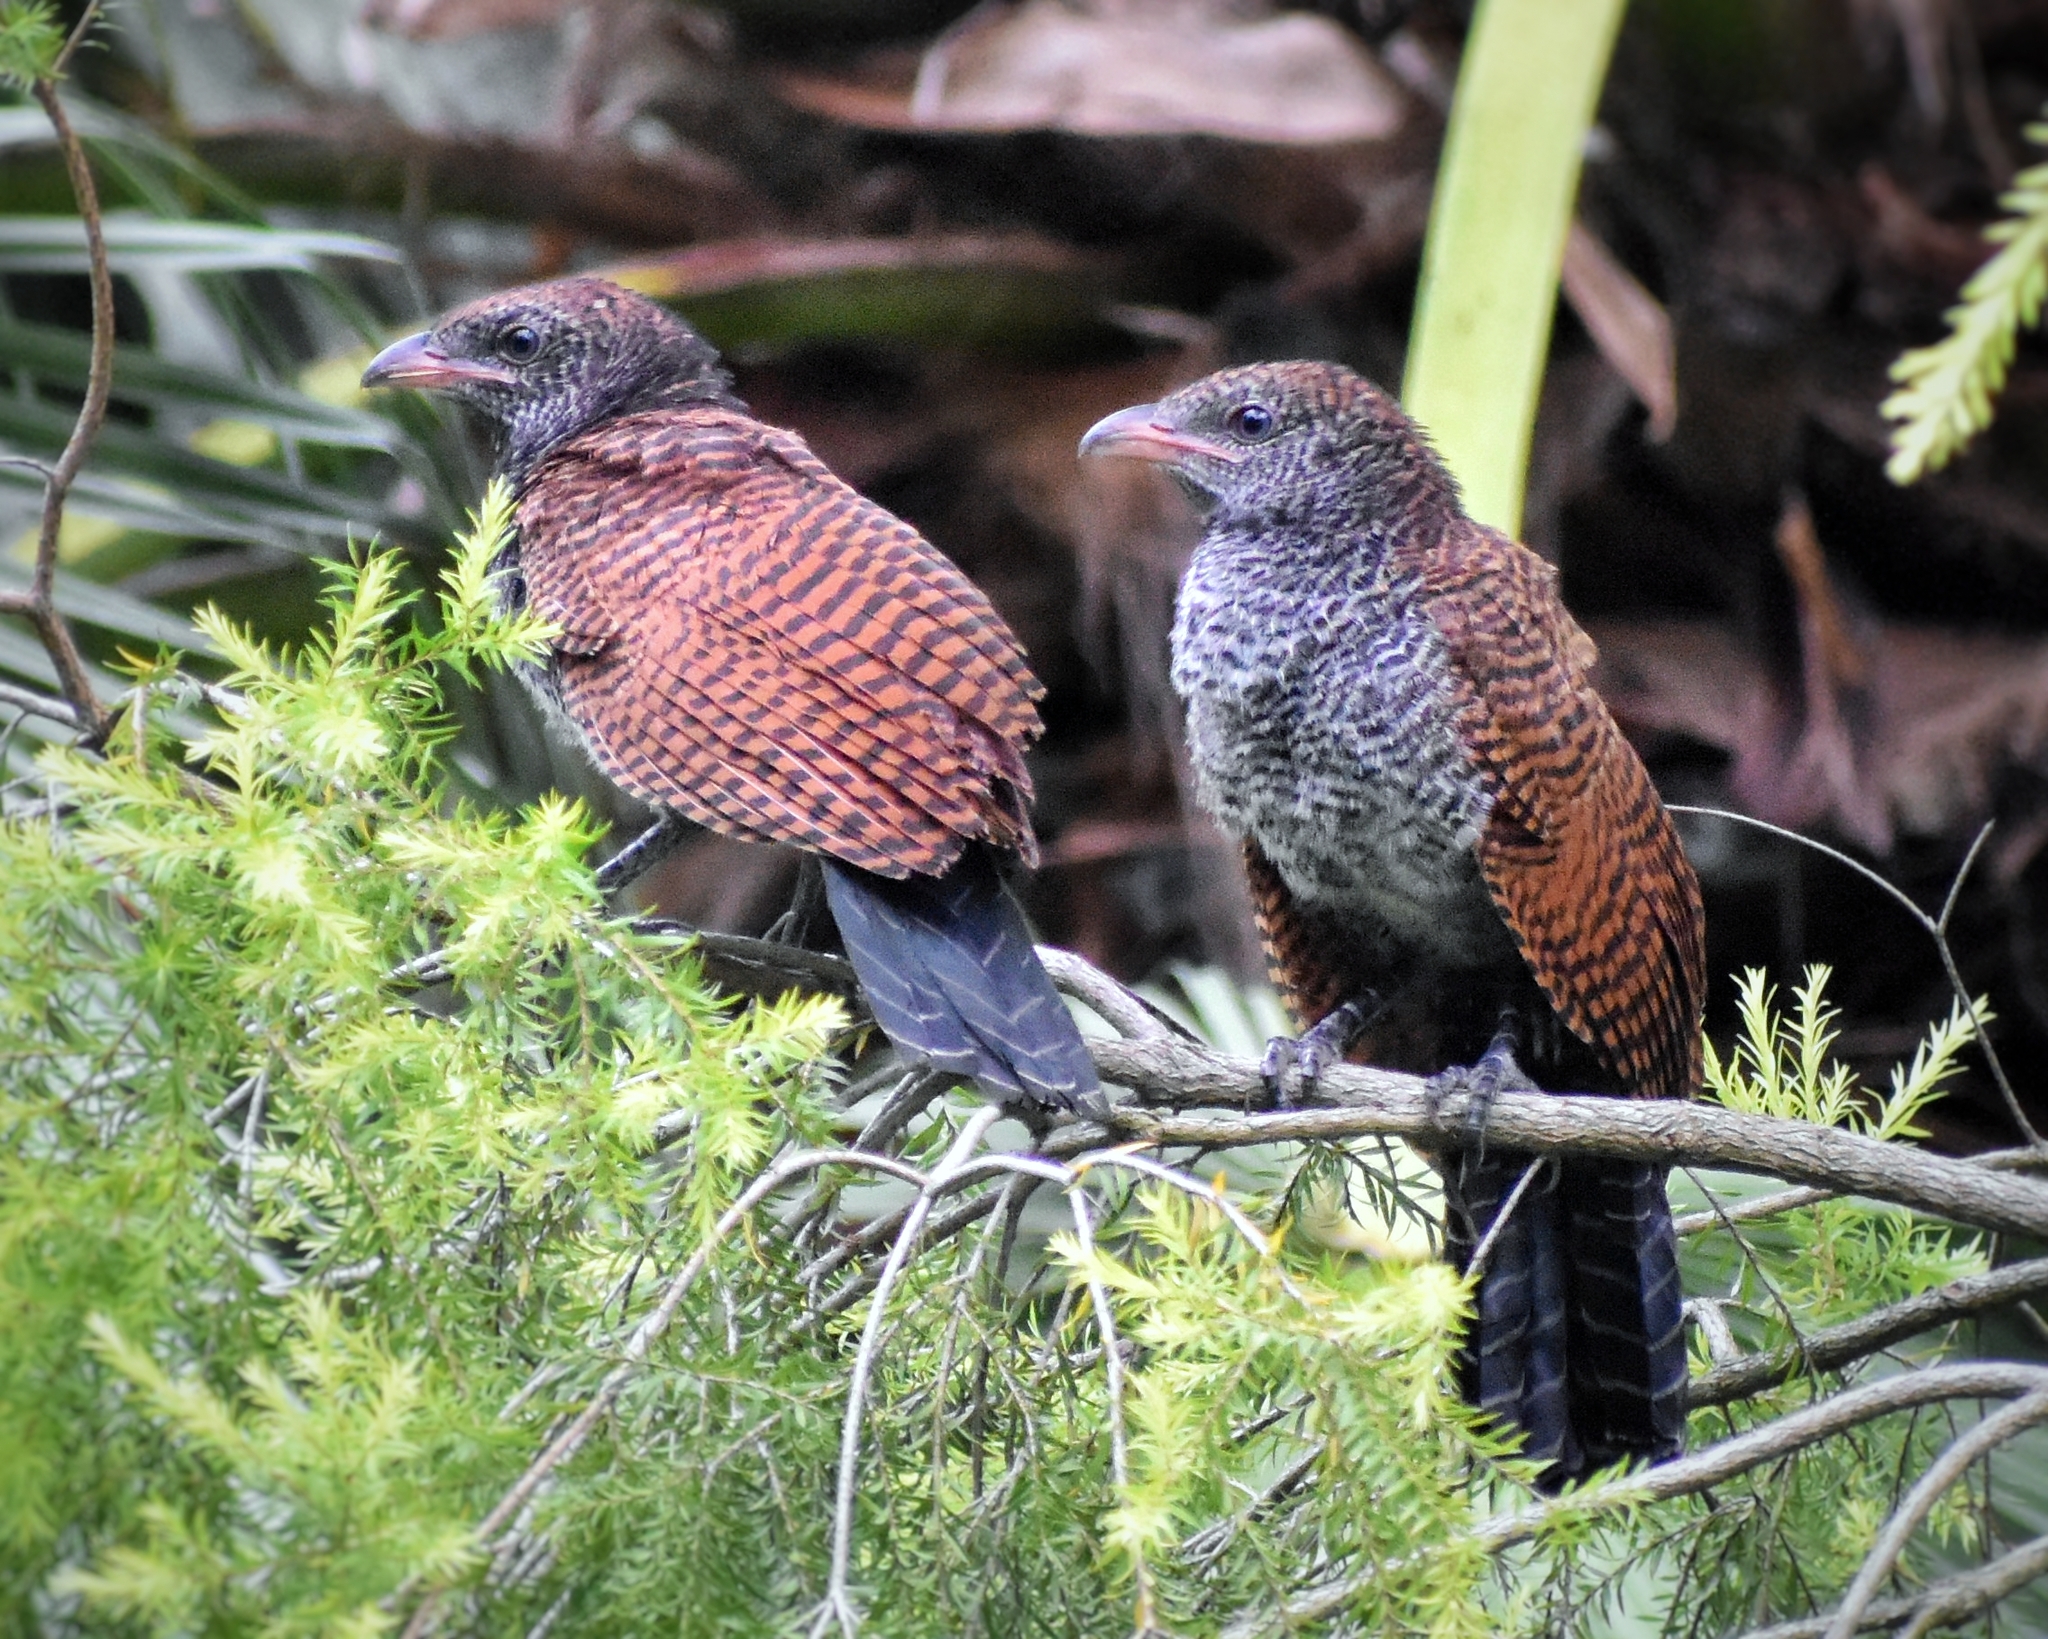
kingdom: Animalia
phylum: Chordata
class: Aves
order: Cuculiformes
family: Cuculidae
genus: Centropus
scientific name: Centropus sinensis
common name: Greater coucal
